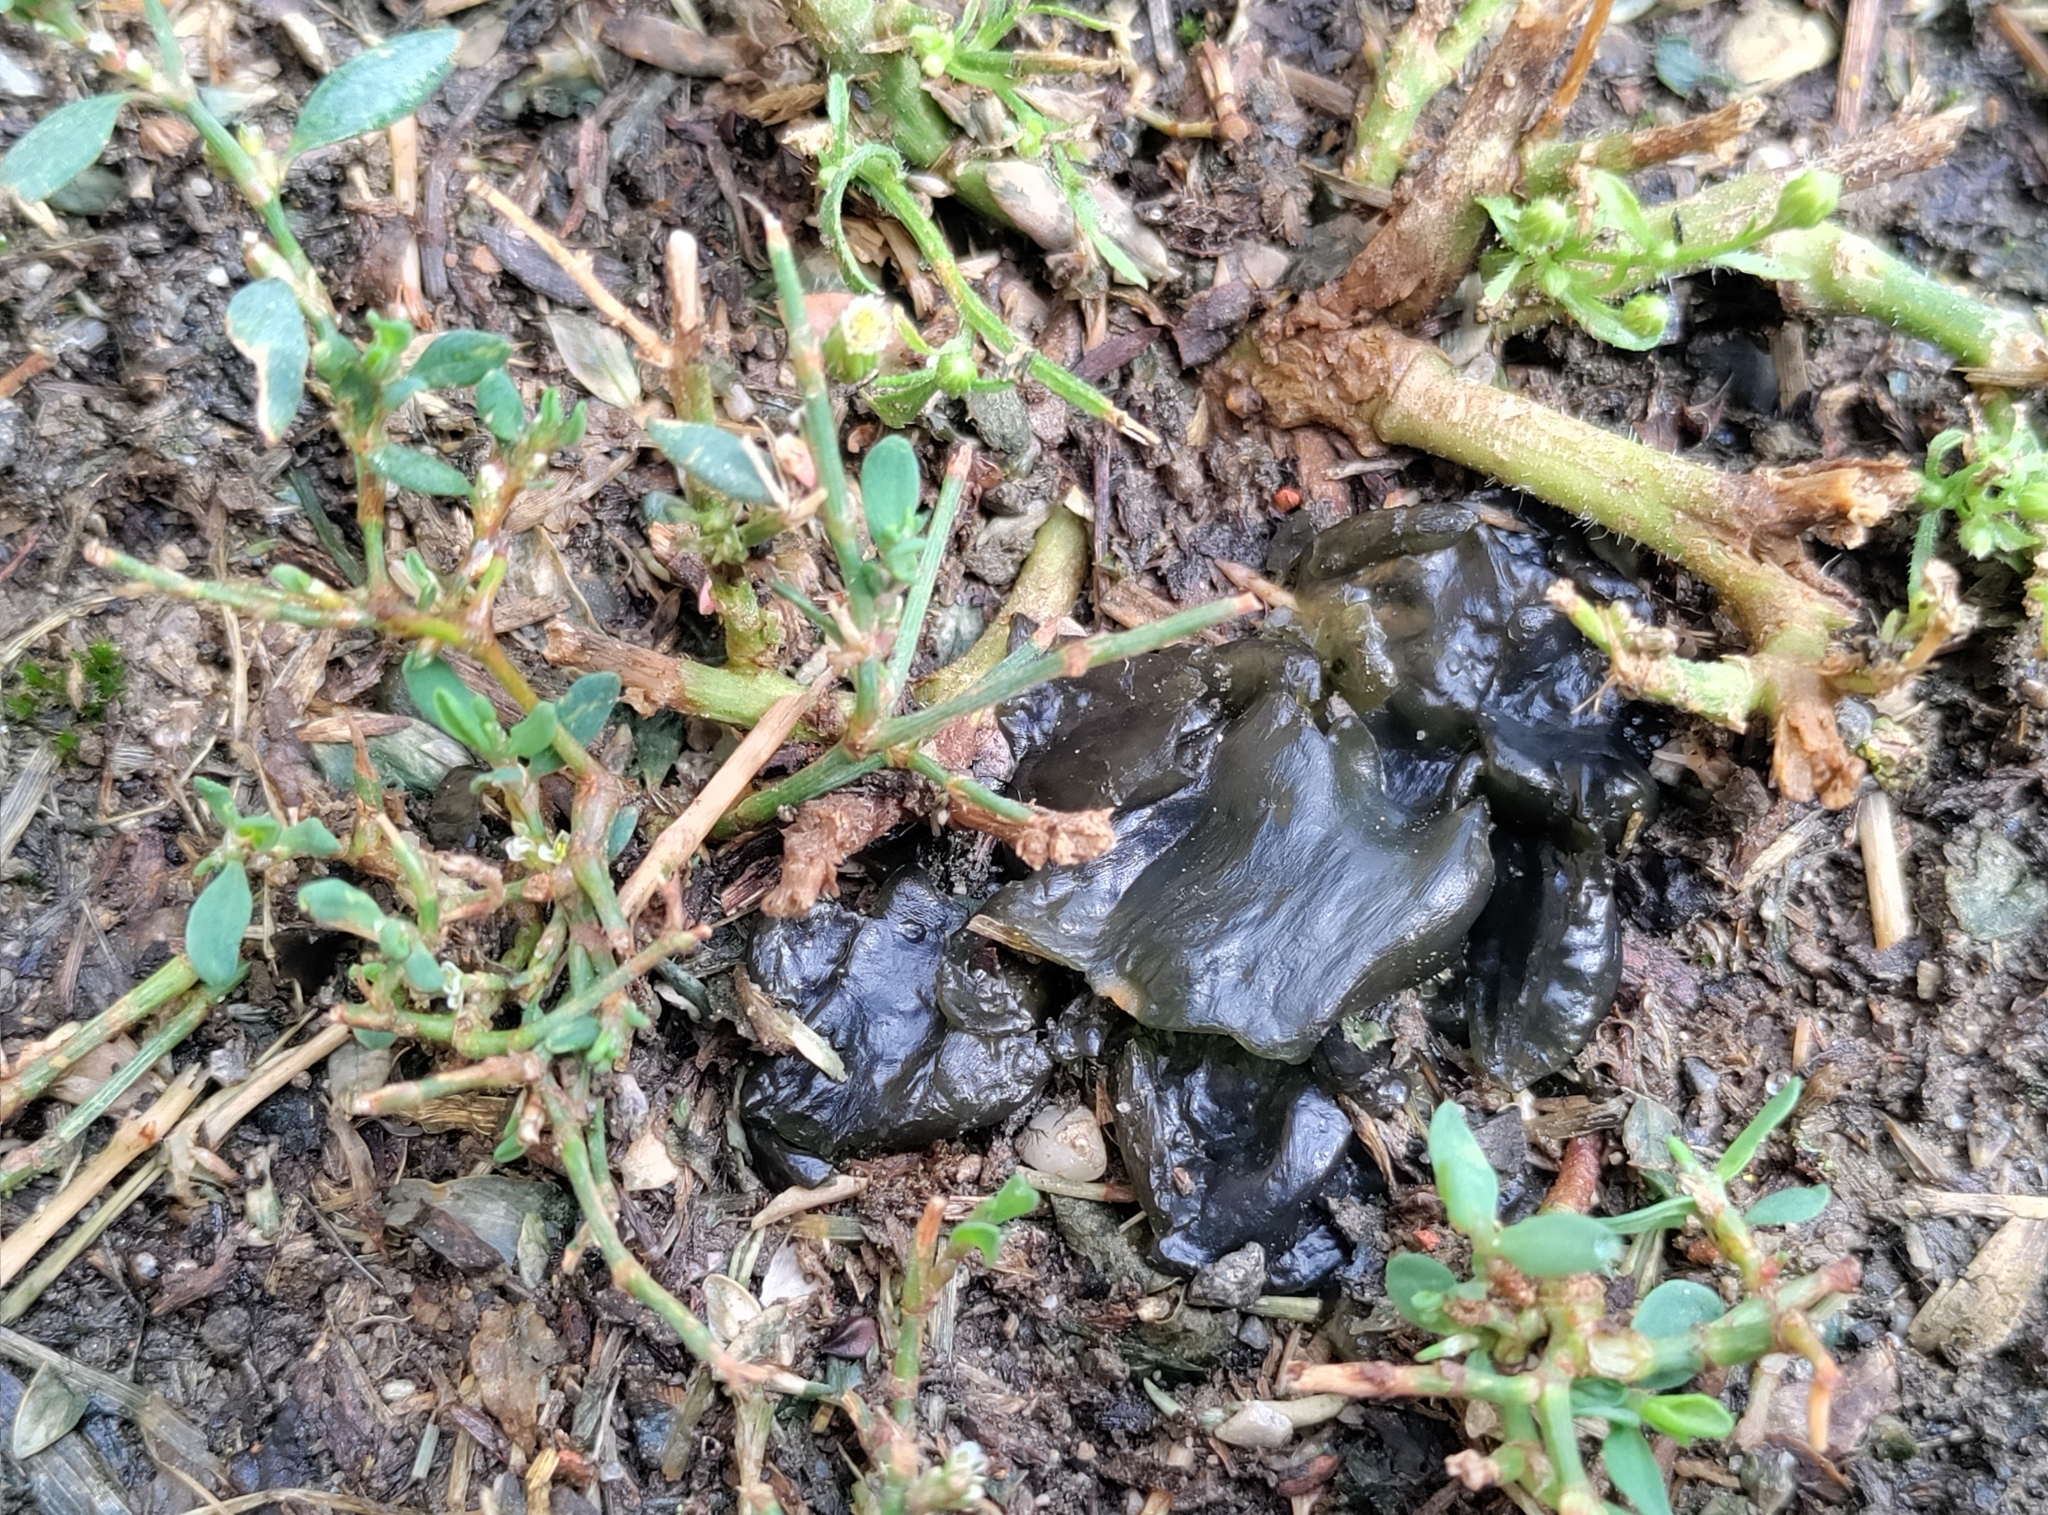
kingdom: Bacteria
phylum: Cyanobacteria
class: Cyanobacteriia
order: Cyanobacteriales
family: Nostocaceae
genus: Nostoc
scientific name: Nostoc commune
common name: Star jelly
